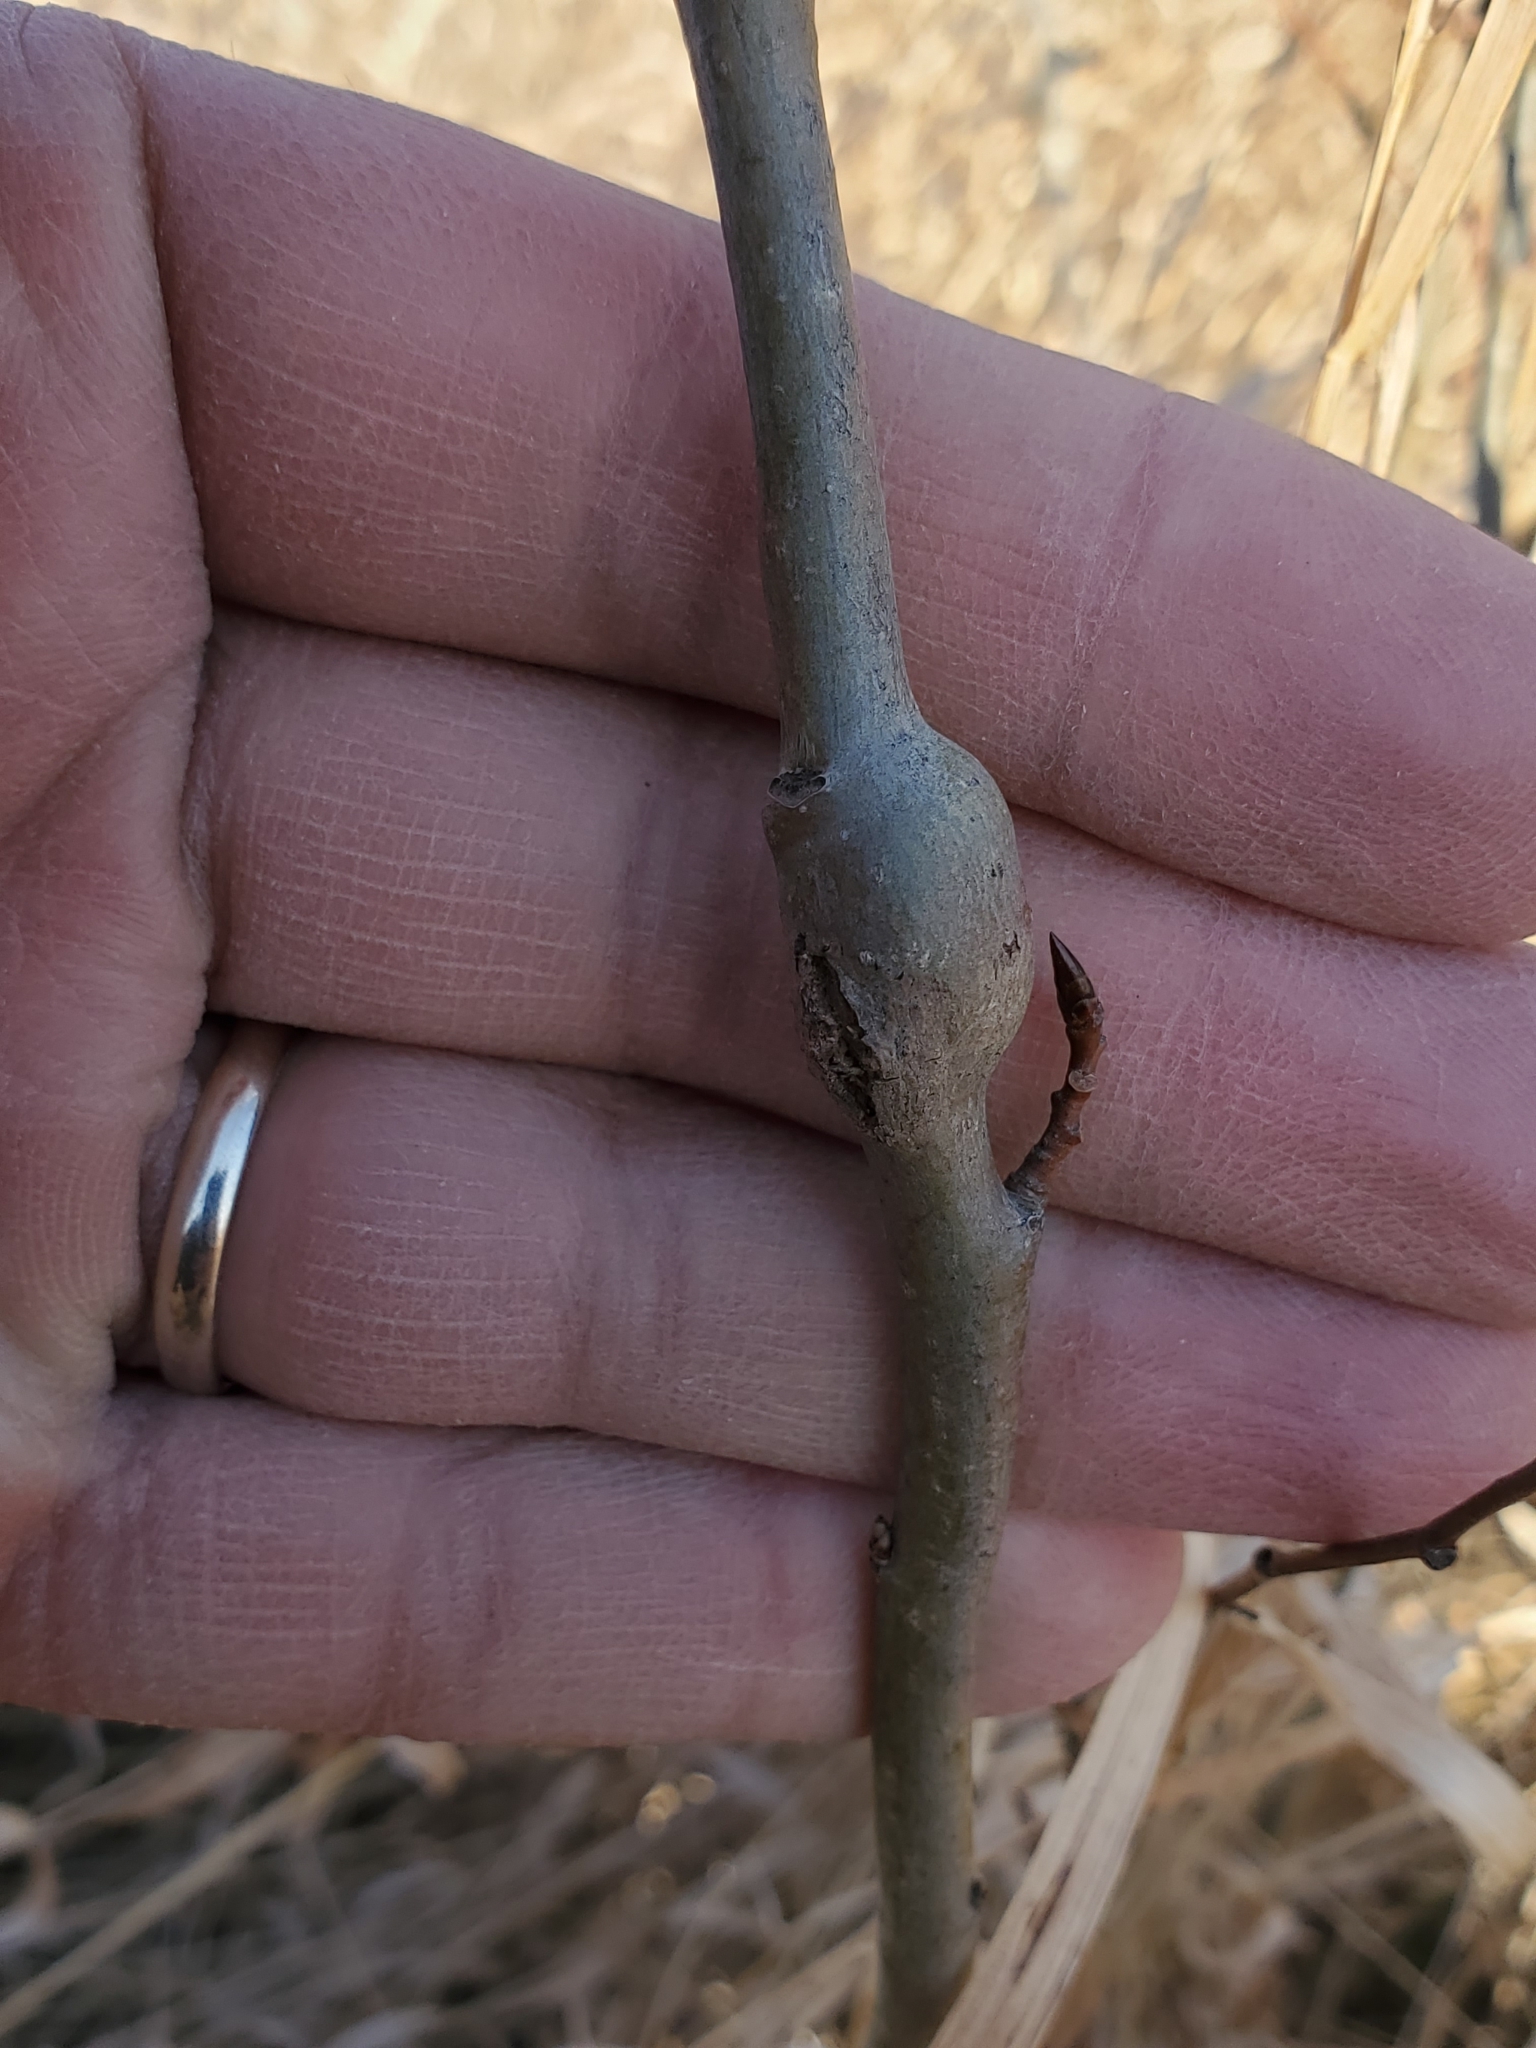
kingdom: Animalia
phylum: Arthropoda
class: Insecta
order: Diptera
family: Agromyzidae
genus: Euhexomyza
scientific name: Euhexomyza schineri
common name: Poplar twiggall fly
